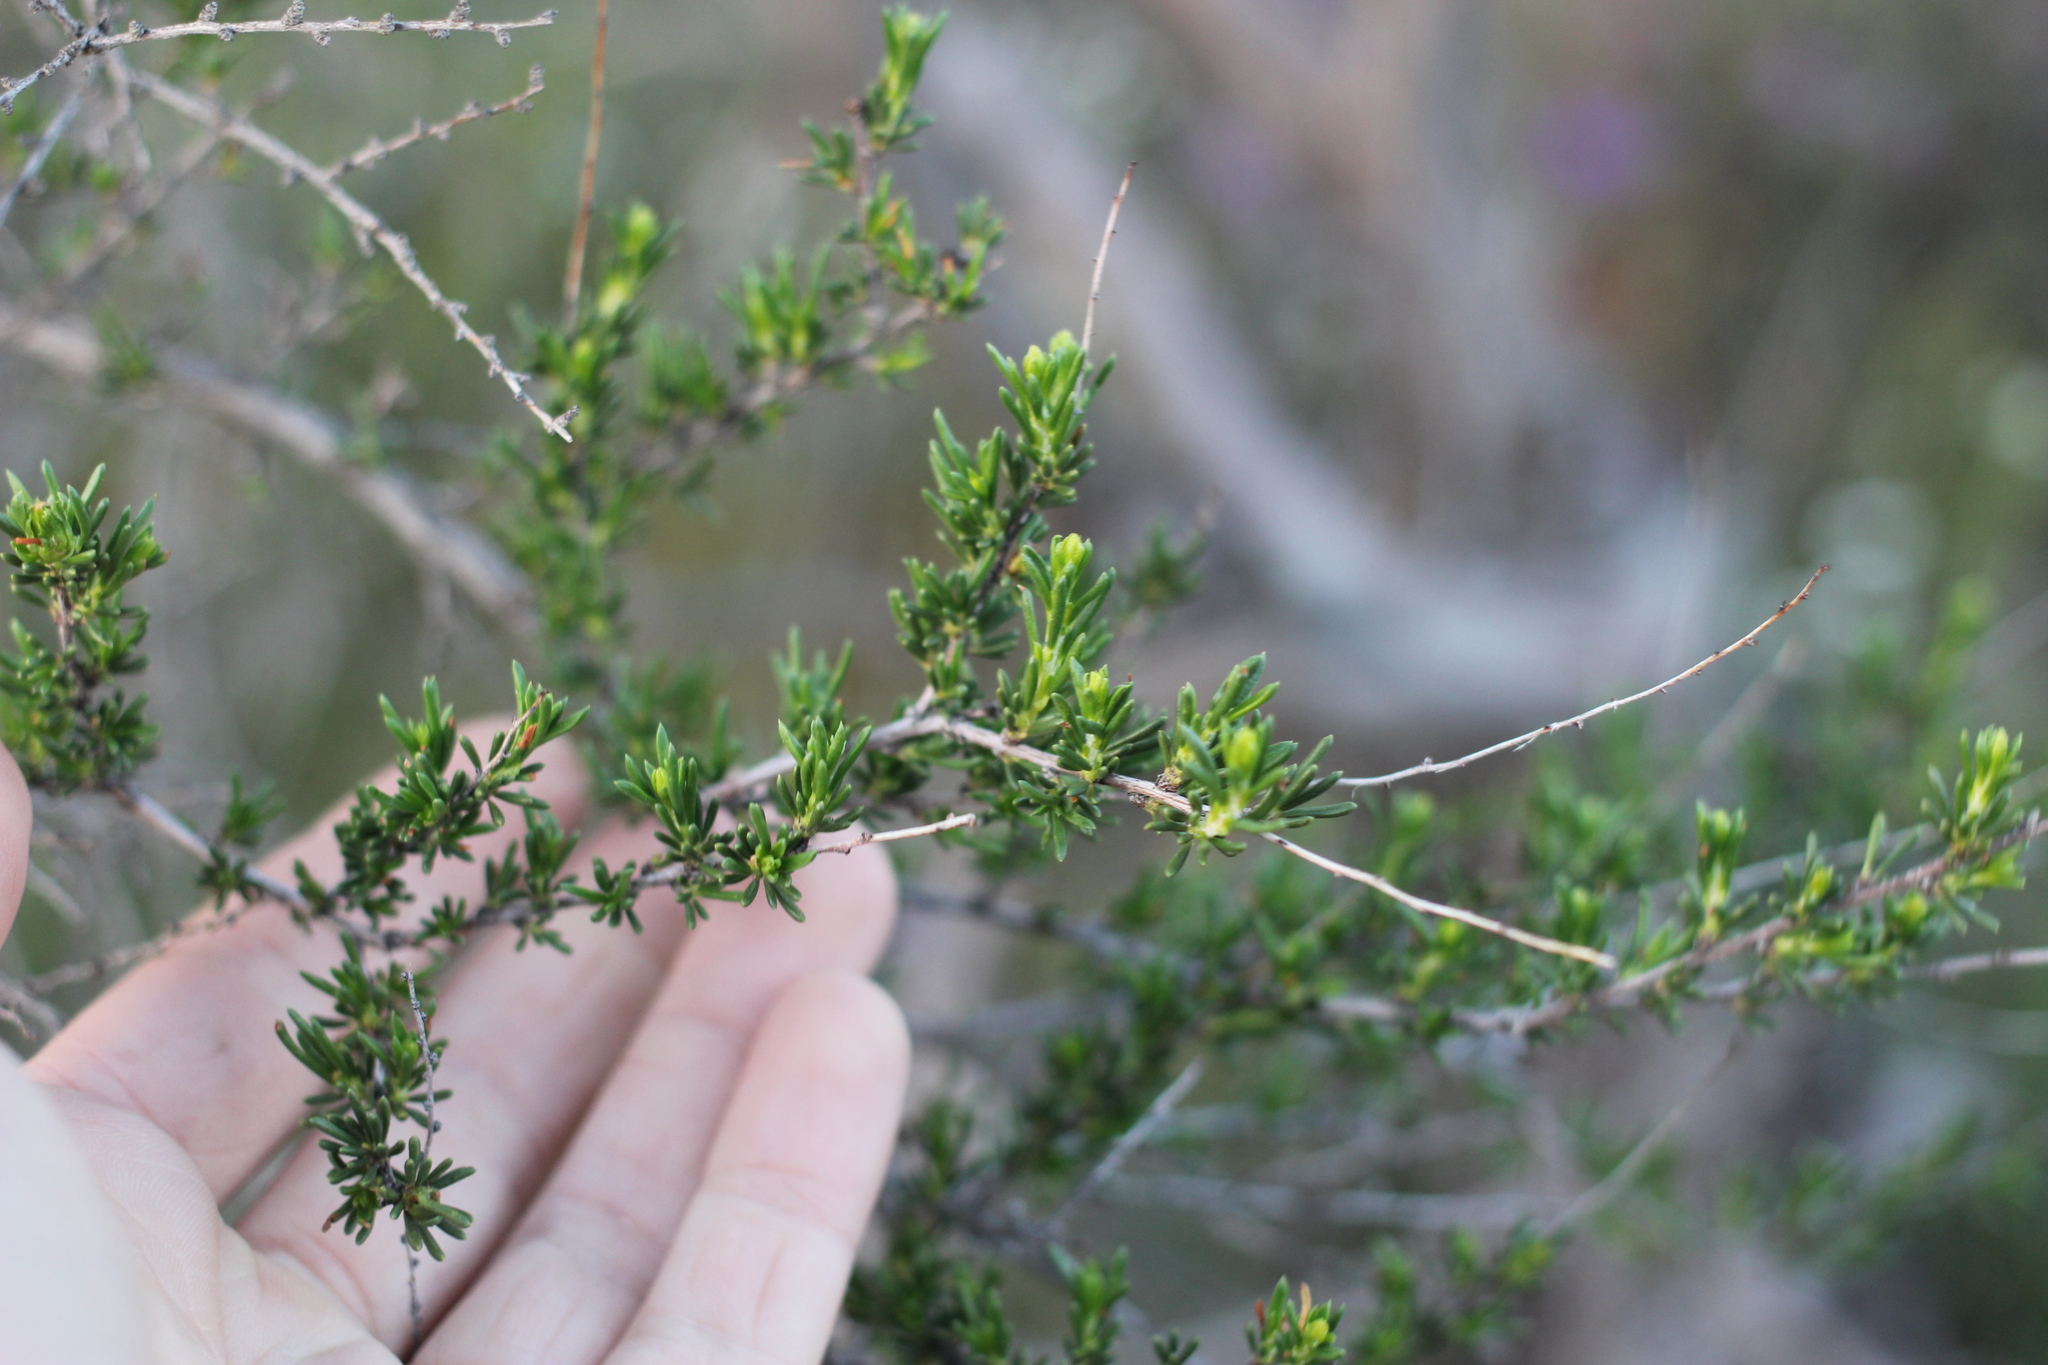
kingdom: Plantae
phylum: Tracheophyta
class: Magnoliopsida
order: Rosales
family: Rosaceae
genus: Adenostoma
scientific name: Adenostoma fasciculatum
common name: Chamise
